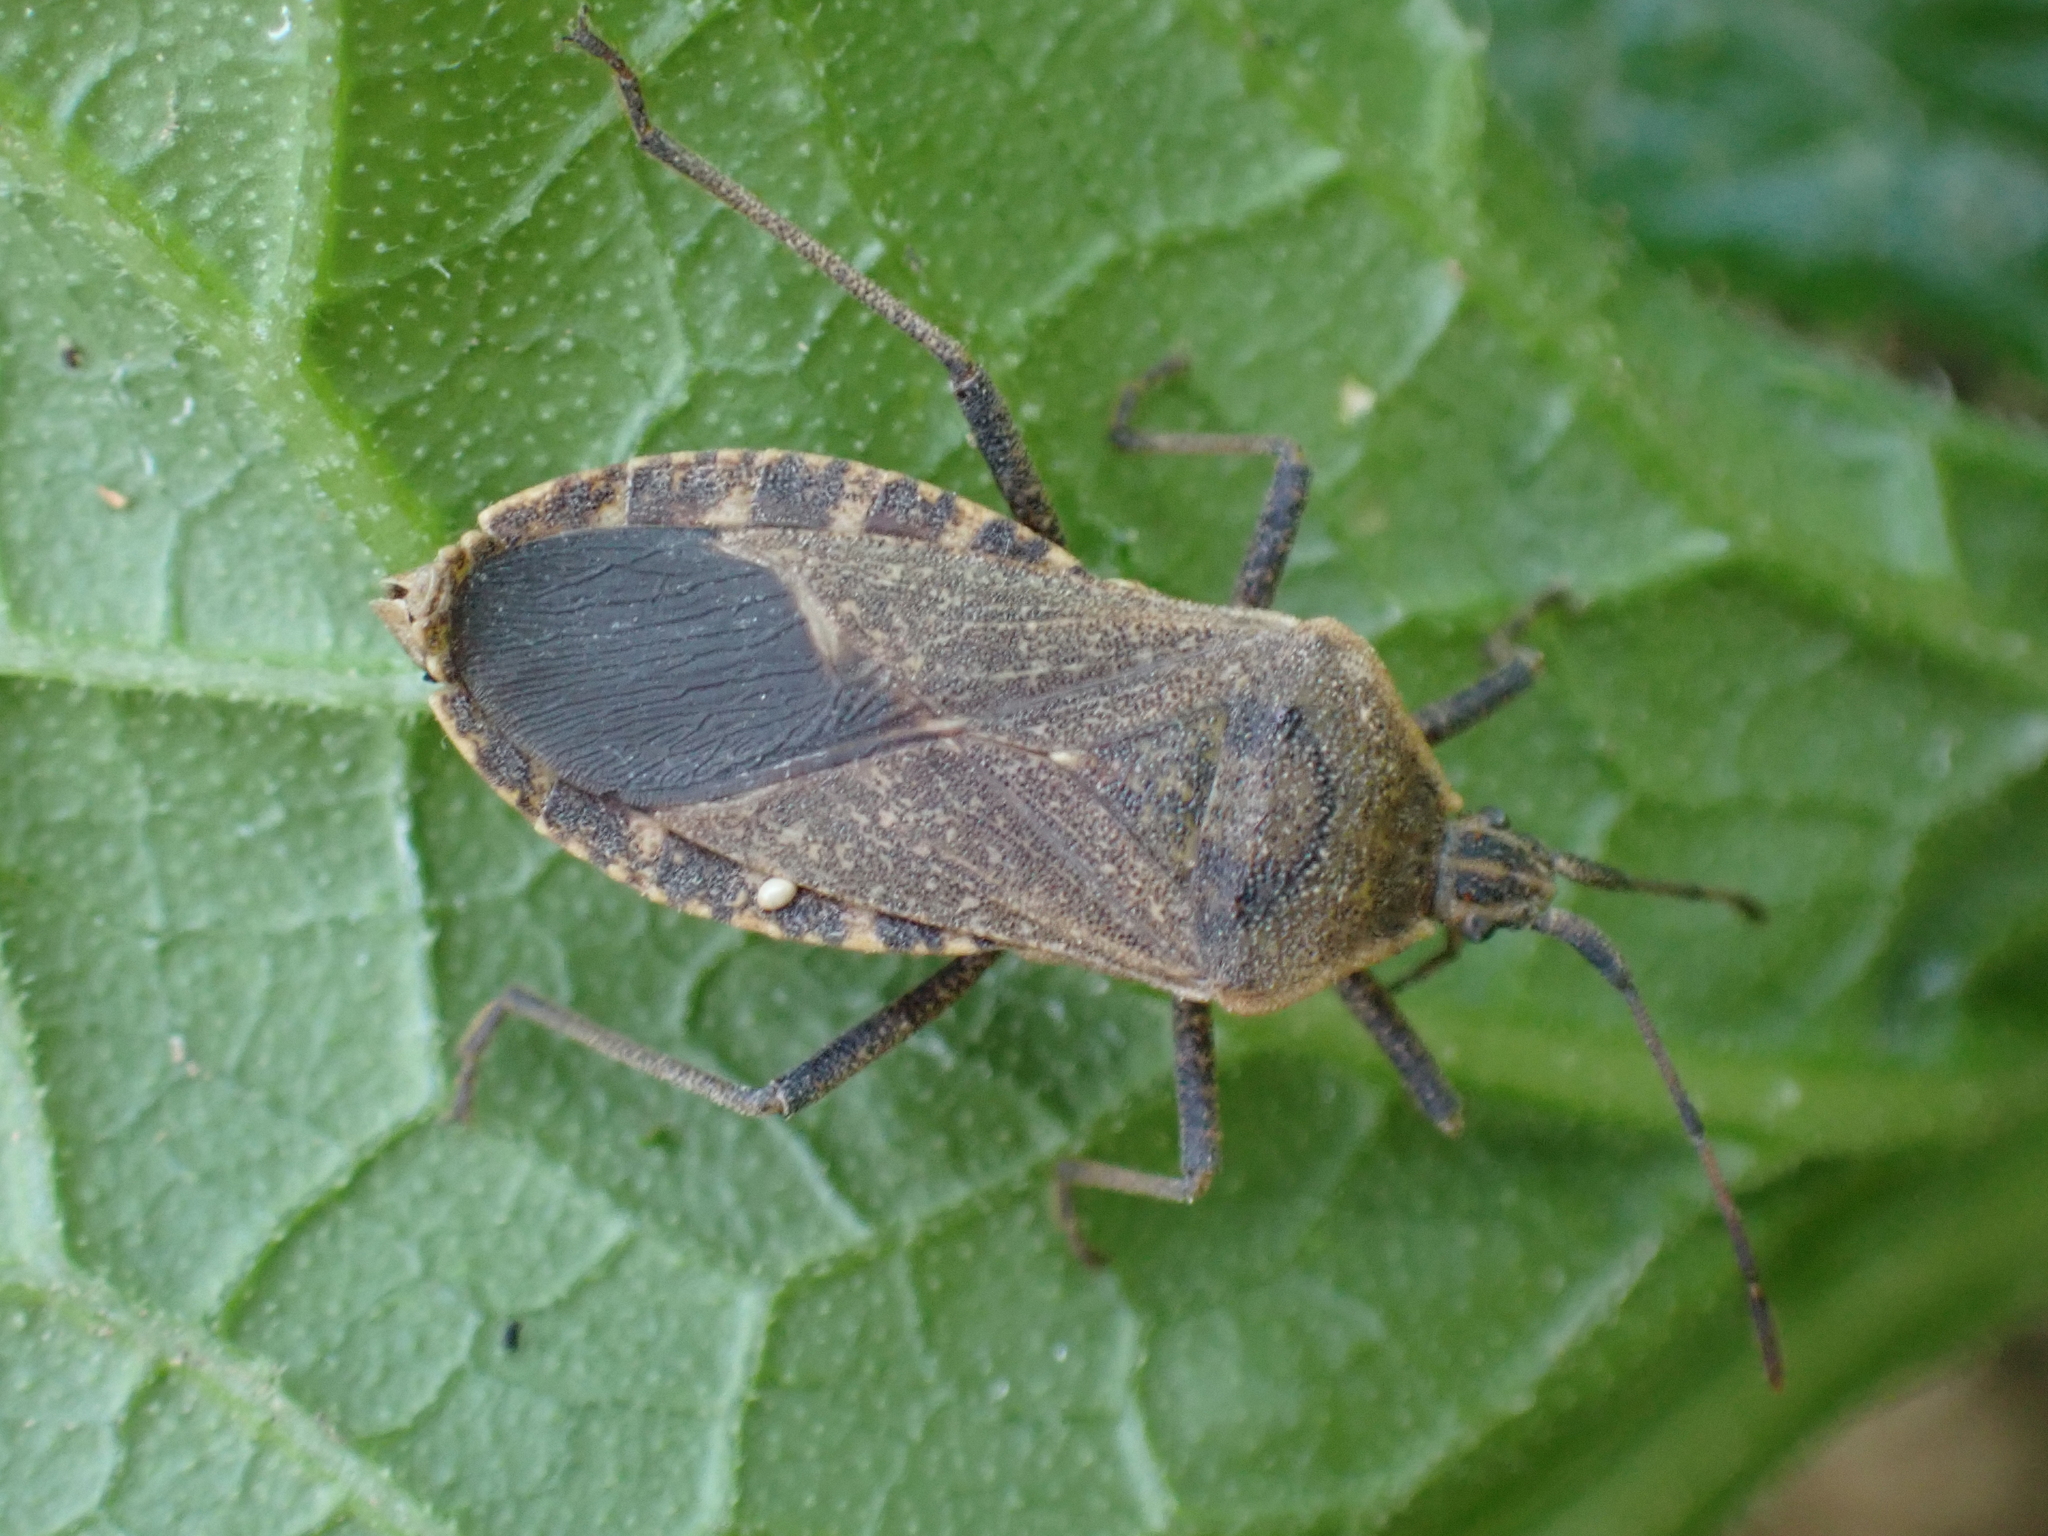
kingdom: Animalia
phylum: Arthropoda
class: Insecta
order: Hemiptera
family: Coreidae
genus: Anasa
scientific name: Anasa tristis
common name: Squash bug
